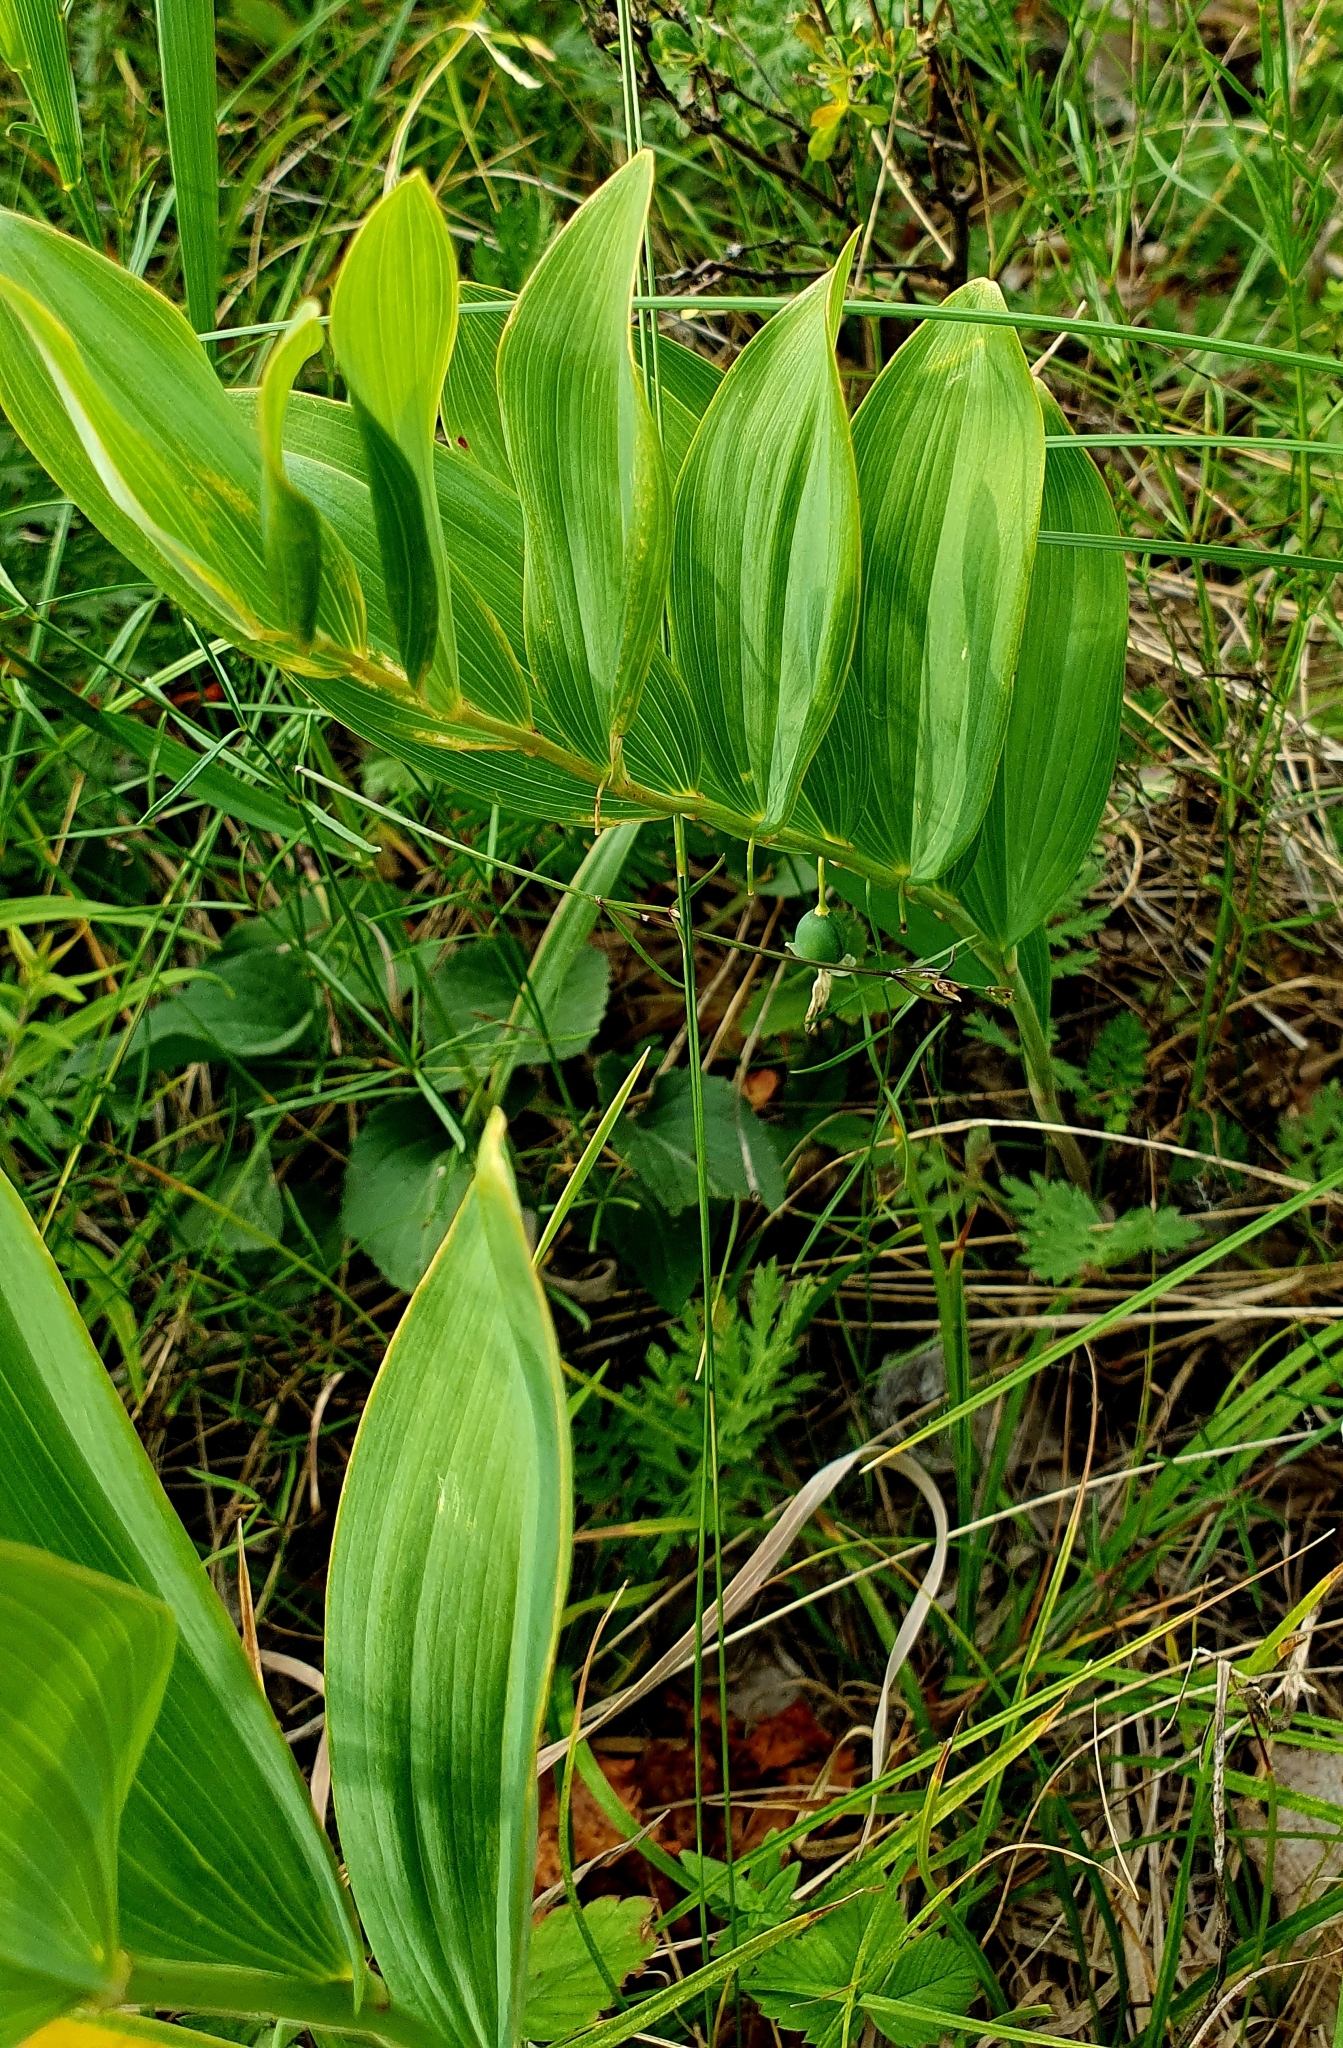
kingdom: Plantae
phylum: Tracheophyta
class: Liliopsida
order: Asparagales
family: Asparagaceae
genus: Polygonatum
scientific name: Polygonatum odoratum
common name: Angular solomon's-seal
